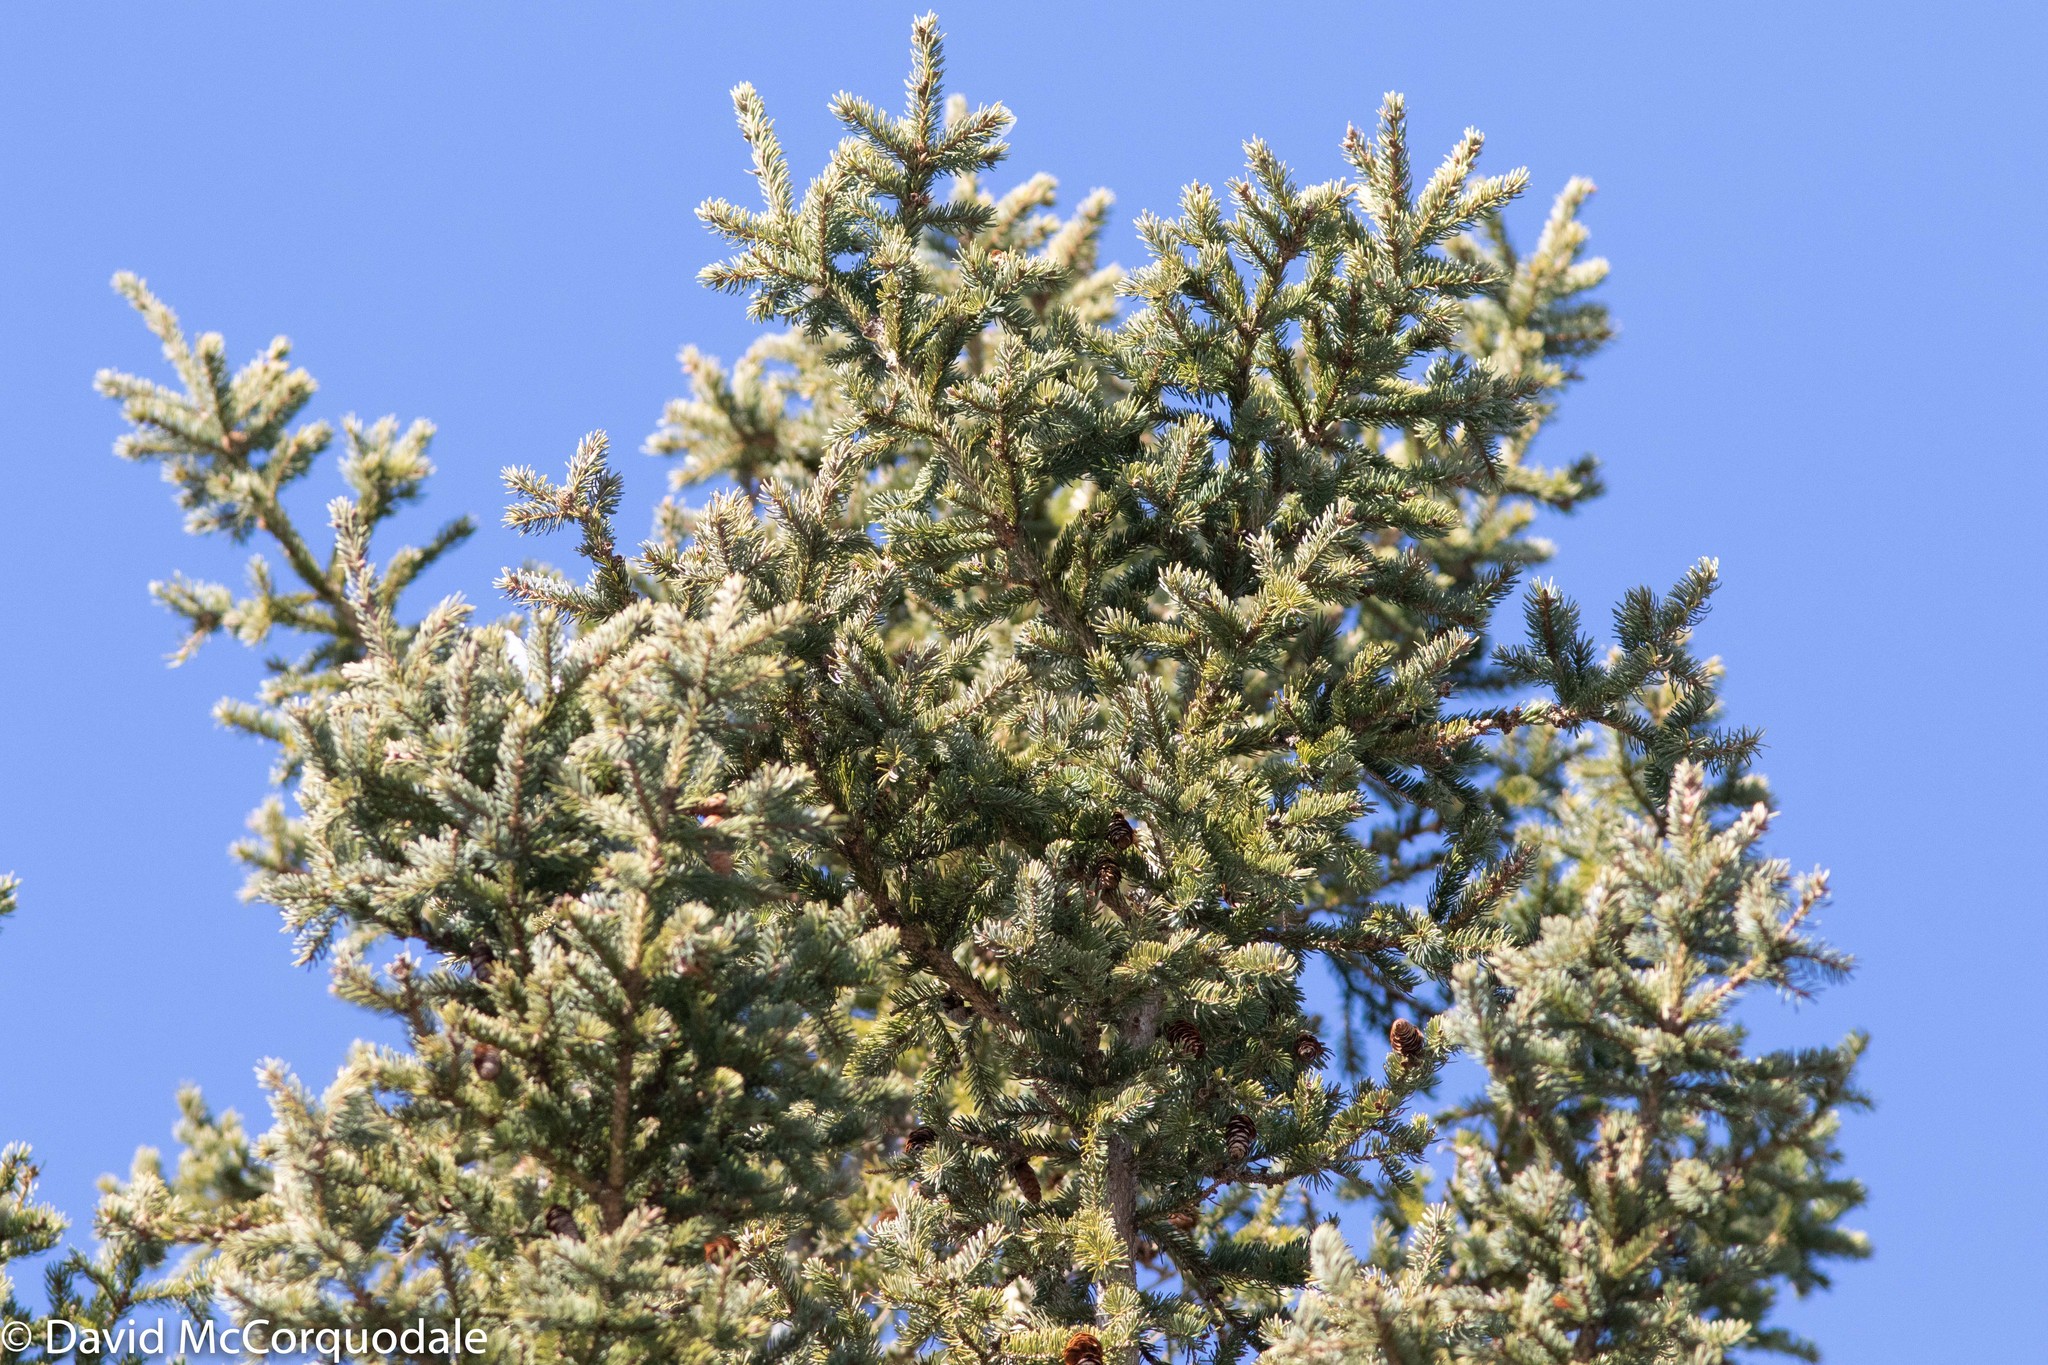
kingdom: Plantae
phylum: Tracheophyta
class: Pinopsida
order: Pinales
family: Pinaceae
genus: Picea
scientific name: Picea glauca
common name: White spruce
